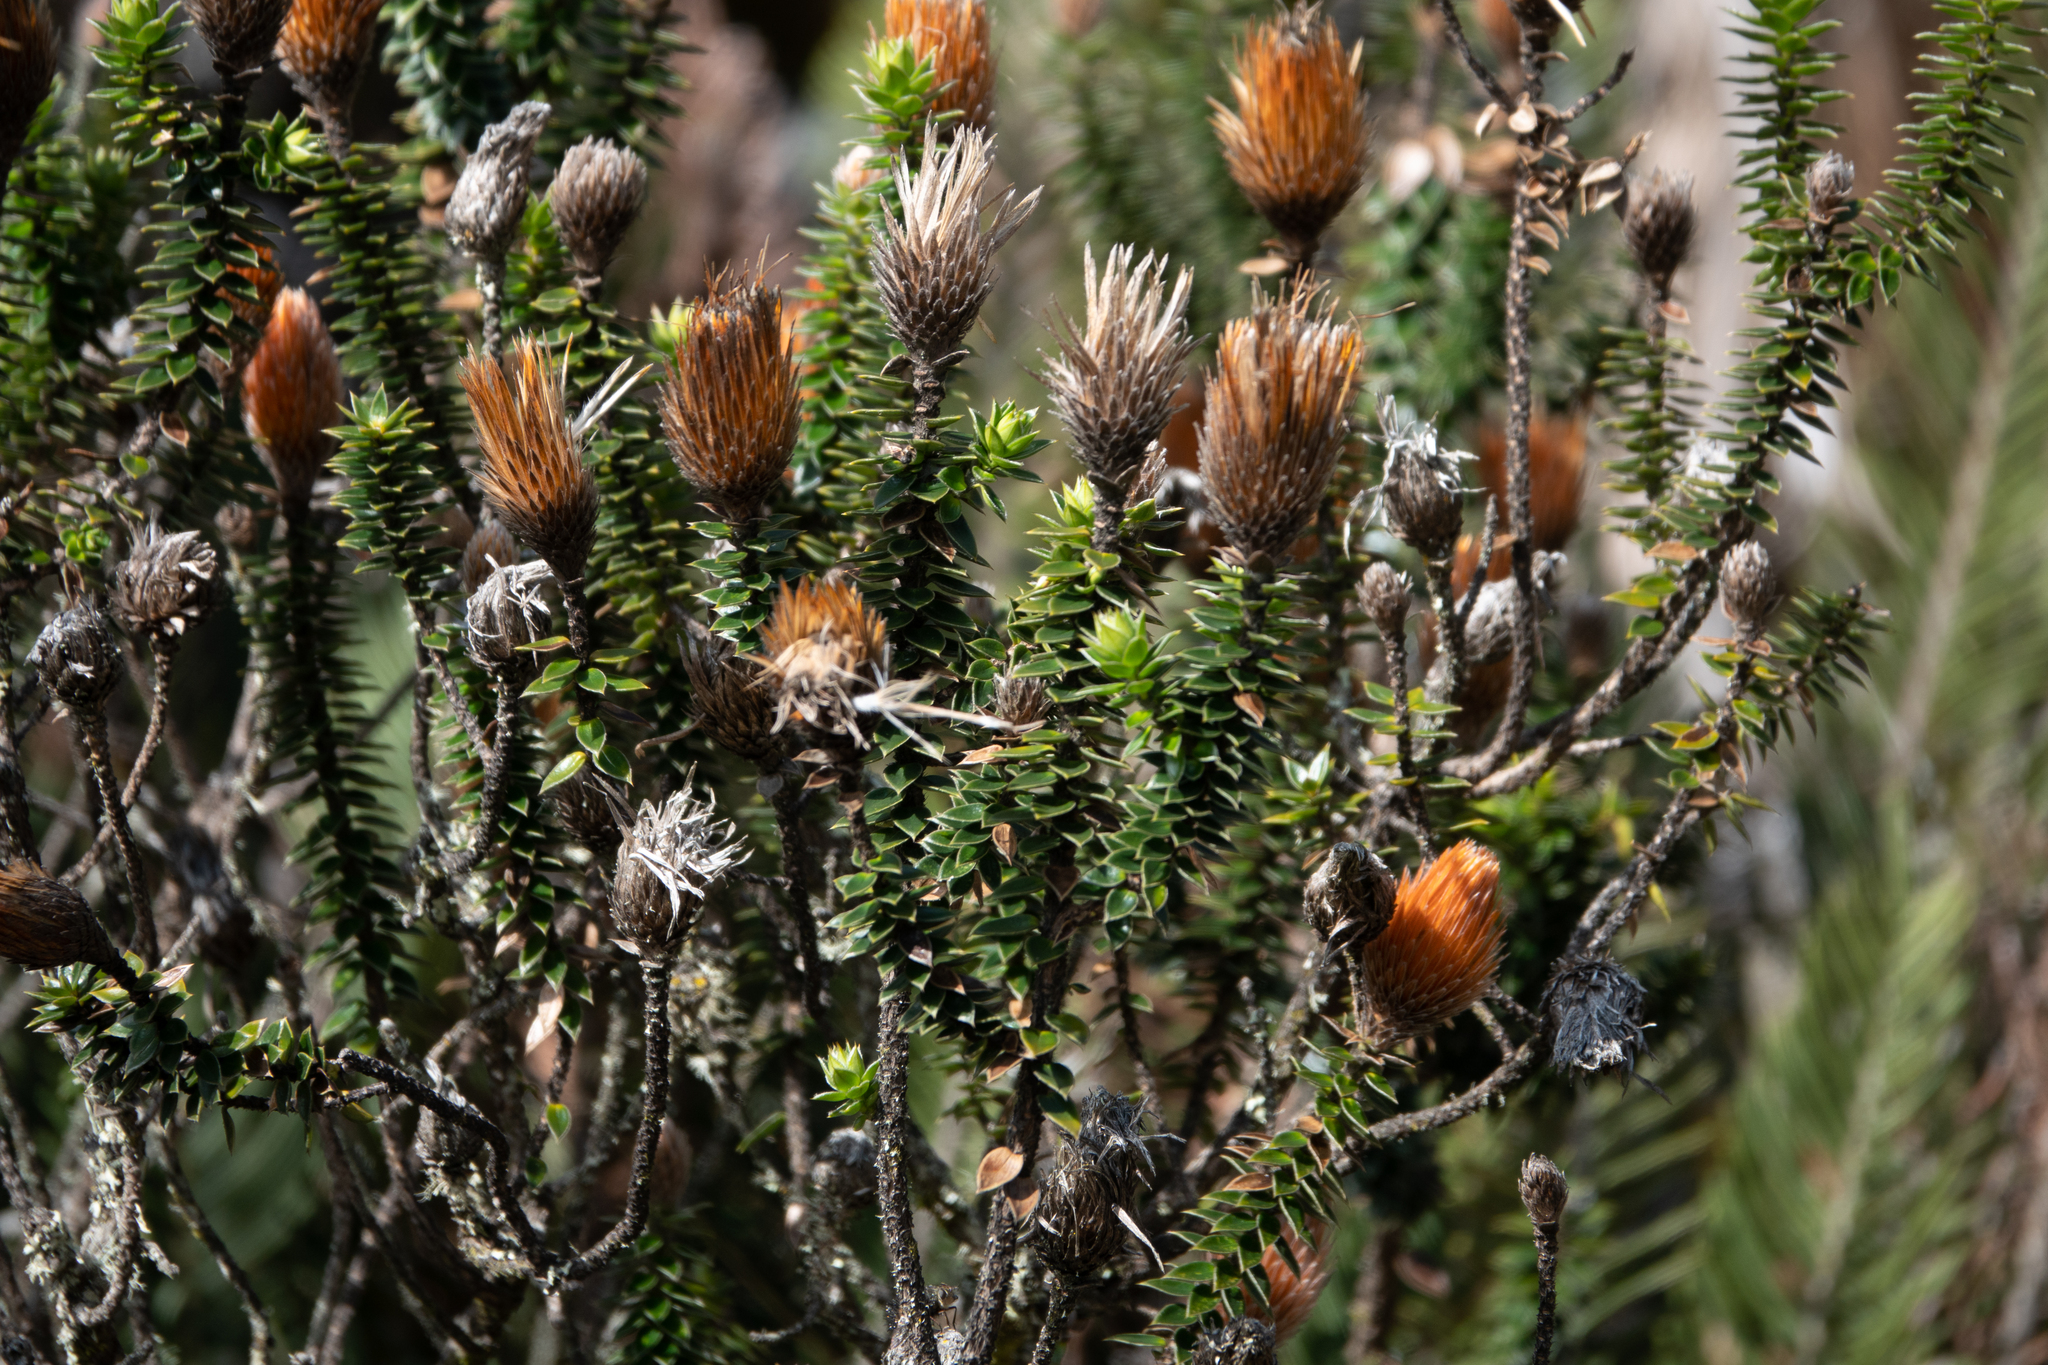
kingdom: Plantae
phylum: Tracheophyta
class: Magnoliopsida
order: Asterales
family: Asteraceae
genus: Chuquiraga
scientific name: Chuquiraga jussieui
